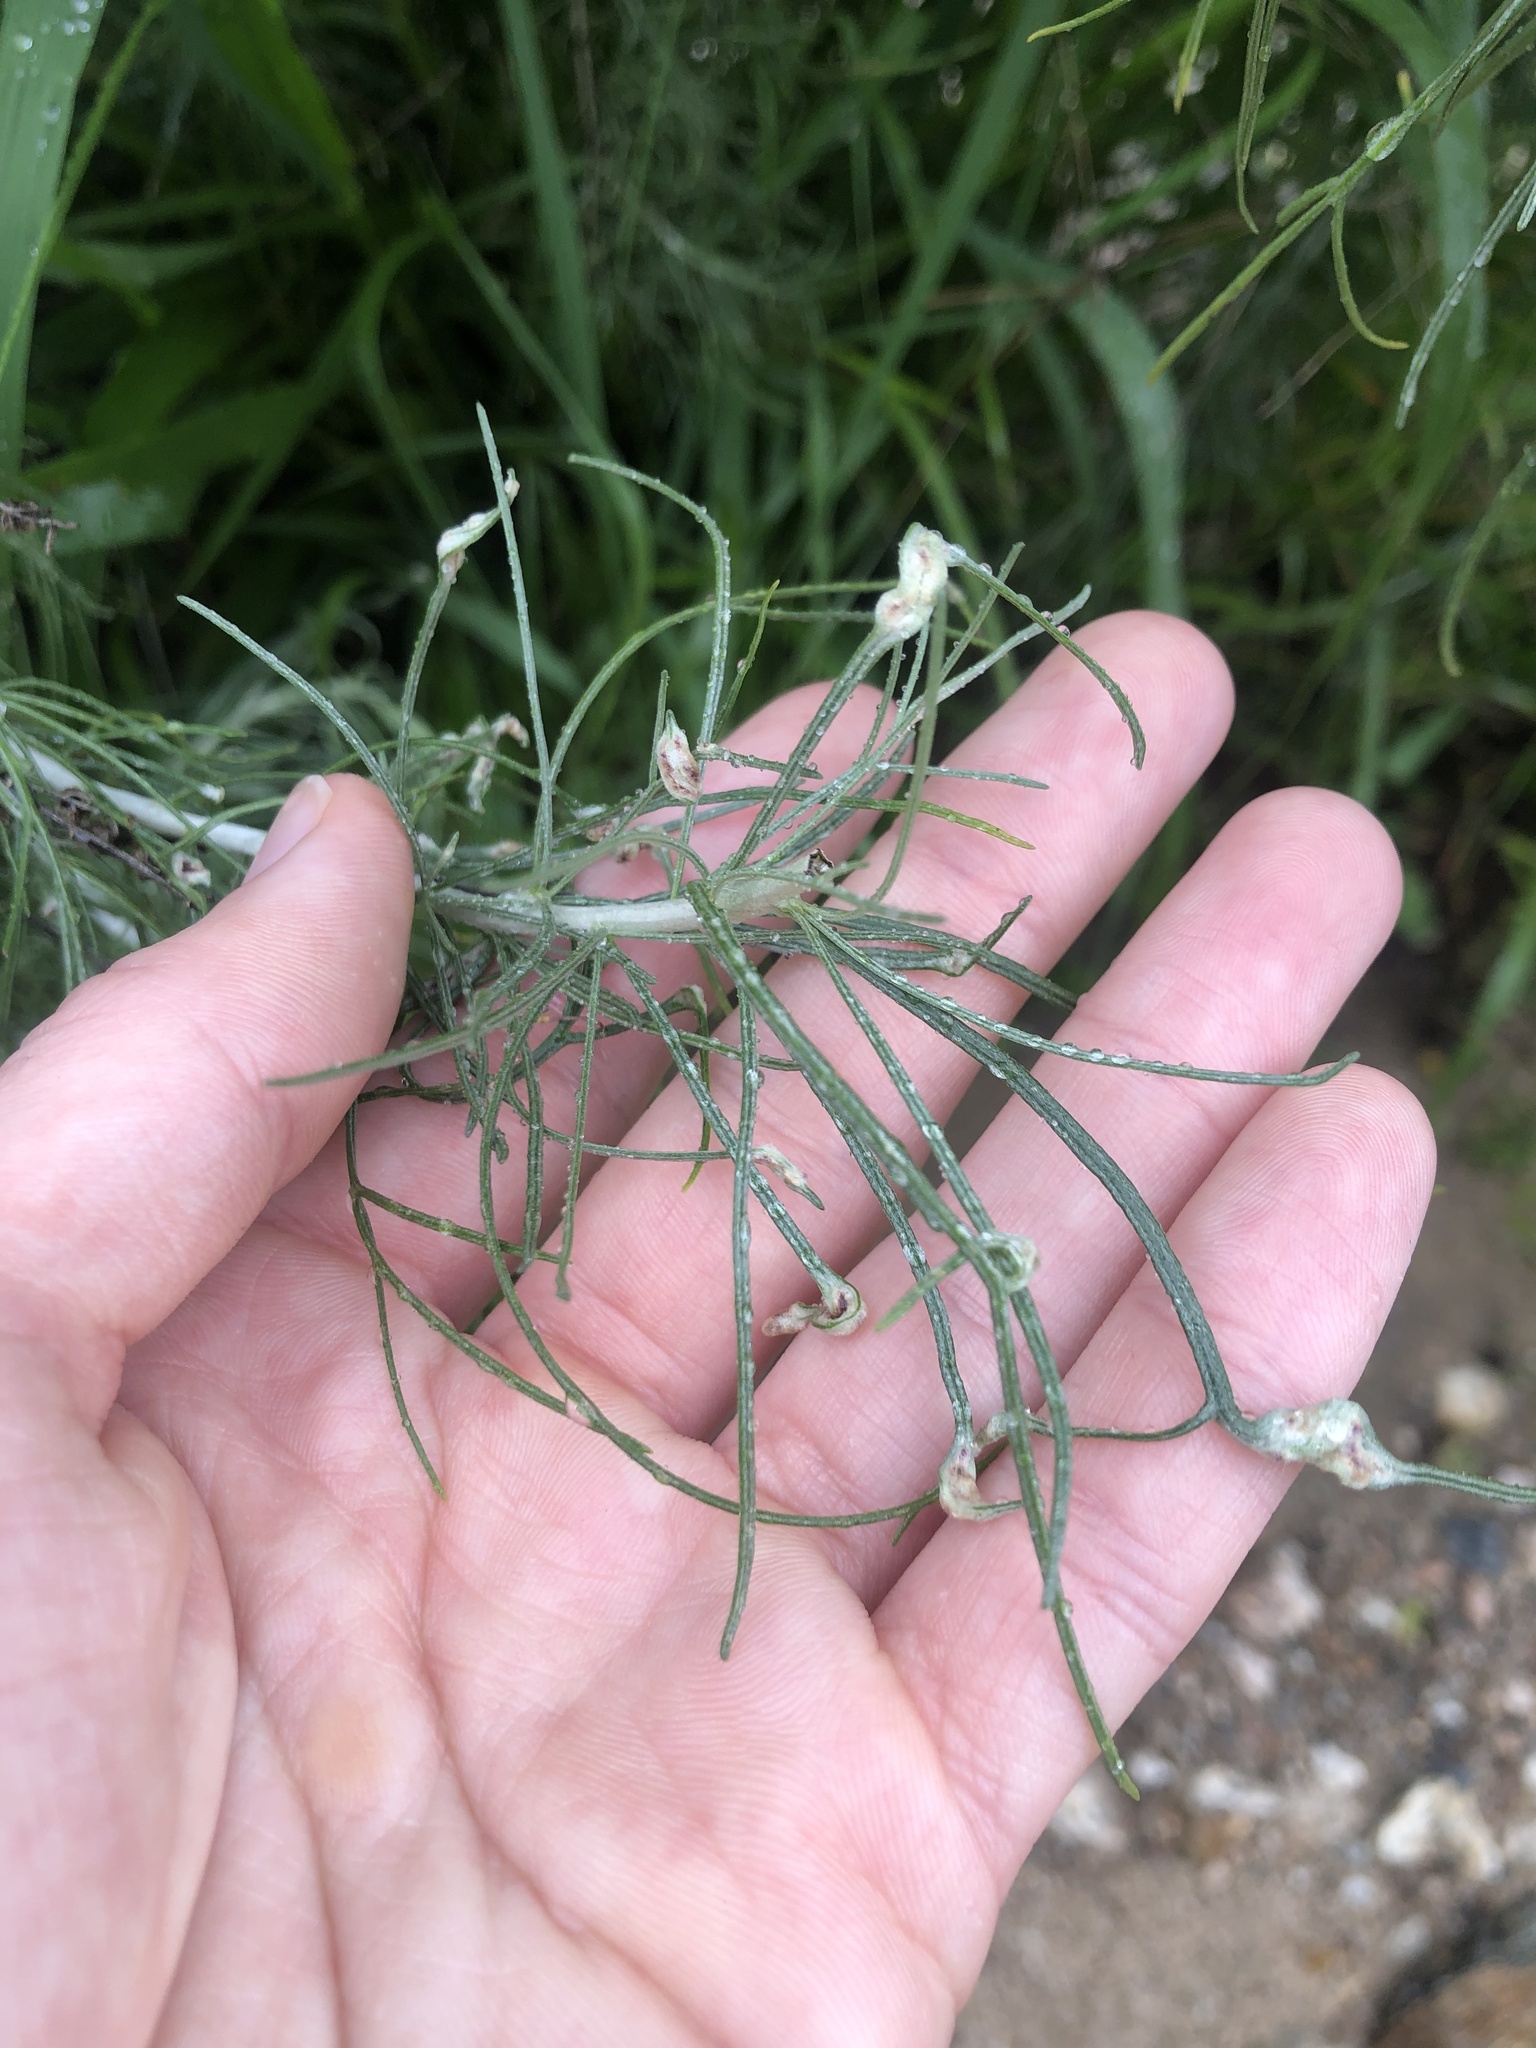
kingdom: Animalia
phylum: Arthropoda
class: Arachnida
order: Trombidiformes
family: Eriophyidae
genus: Aceria
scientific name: Aceria
